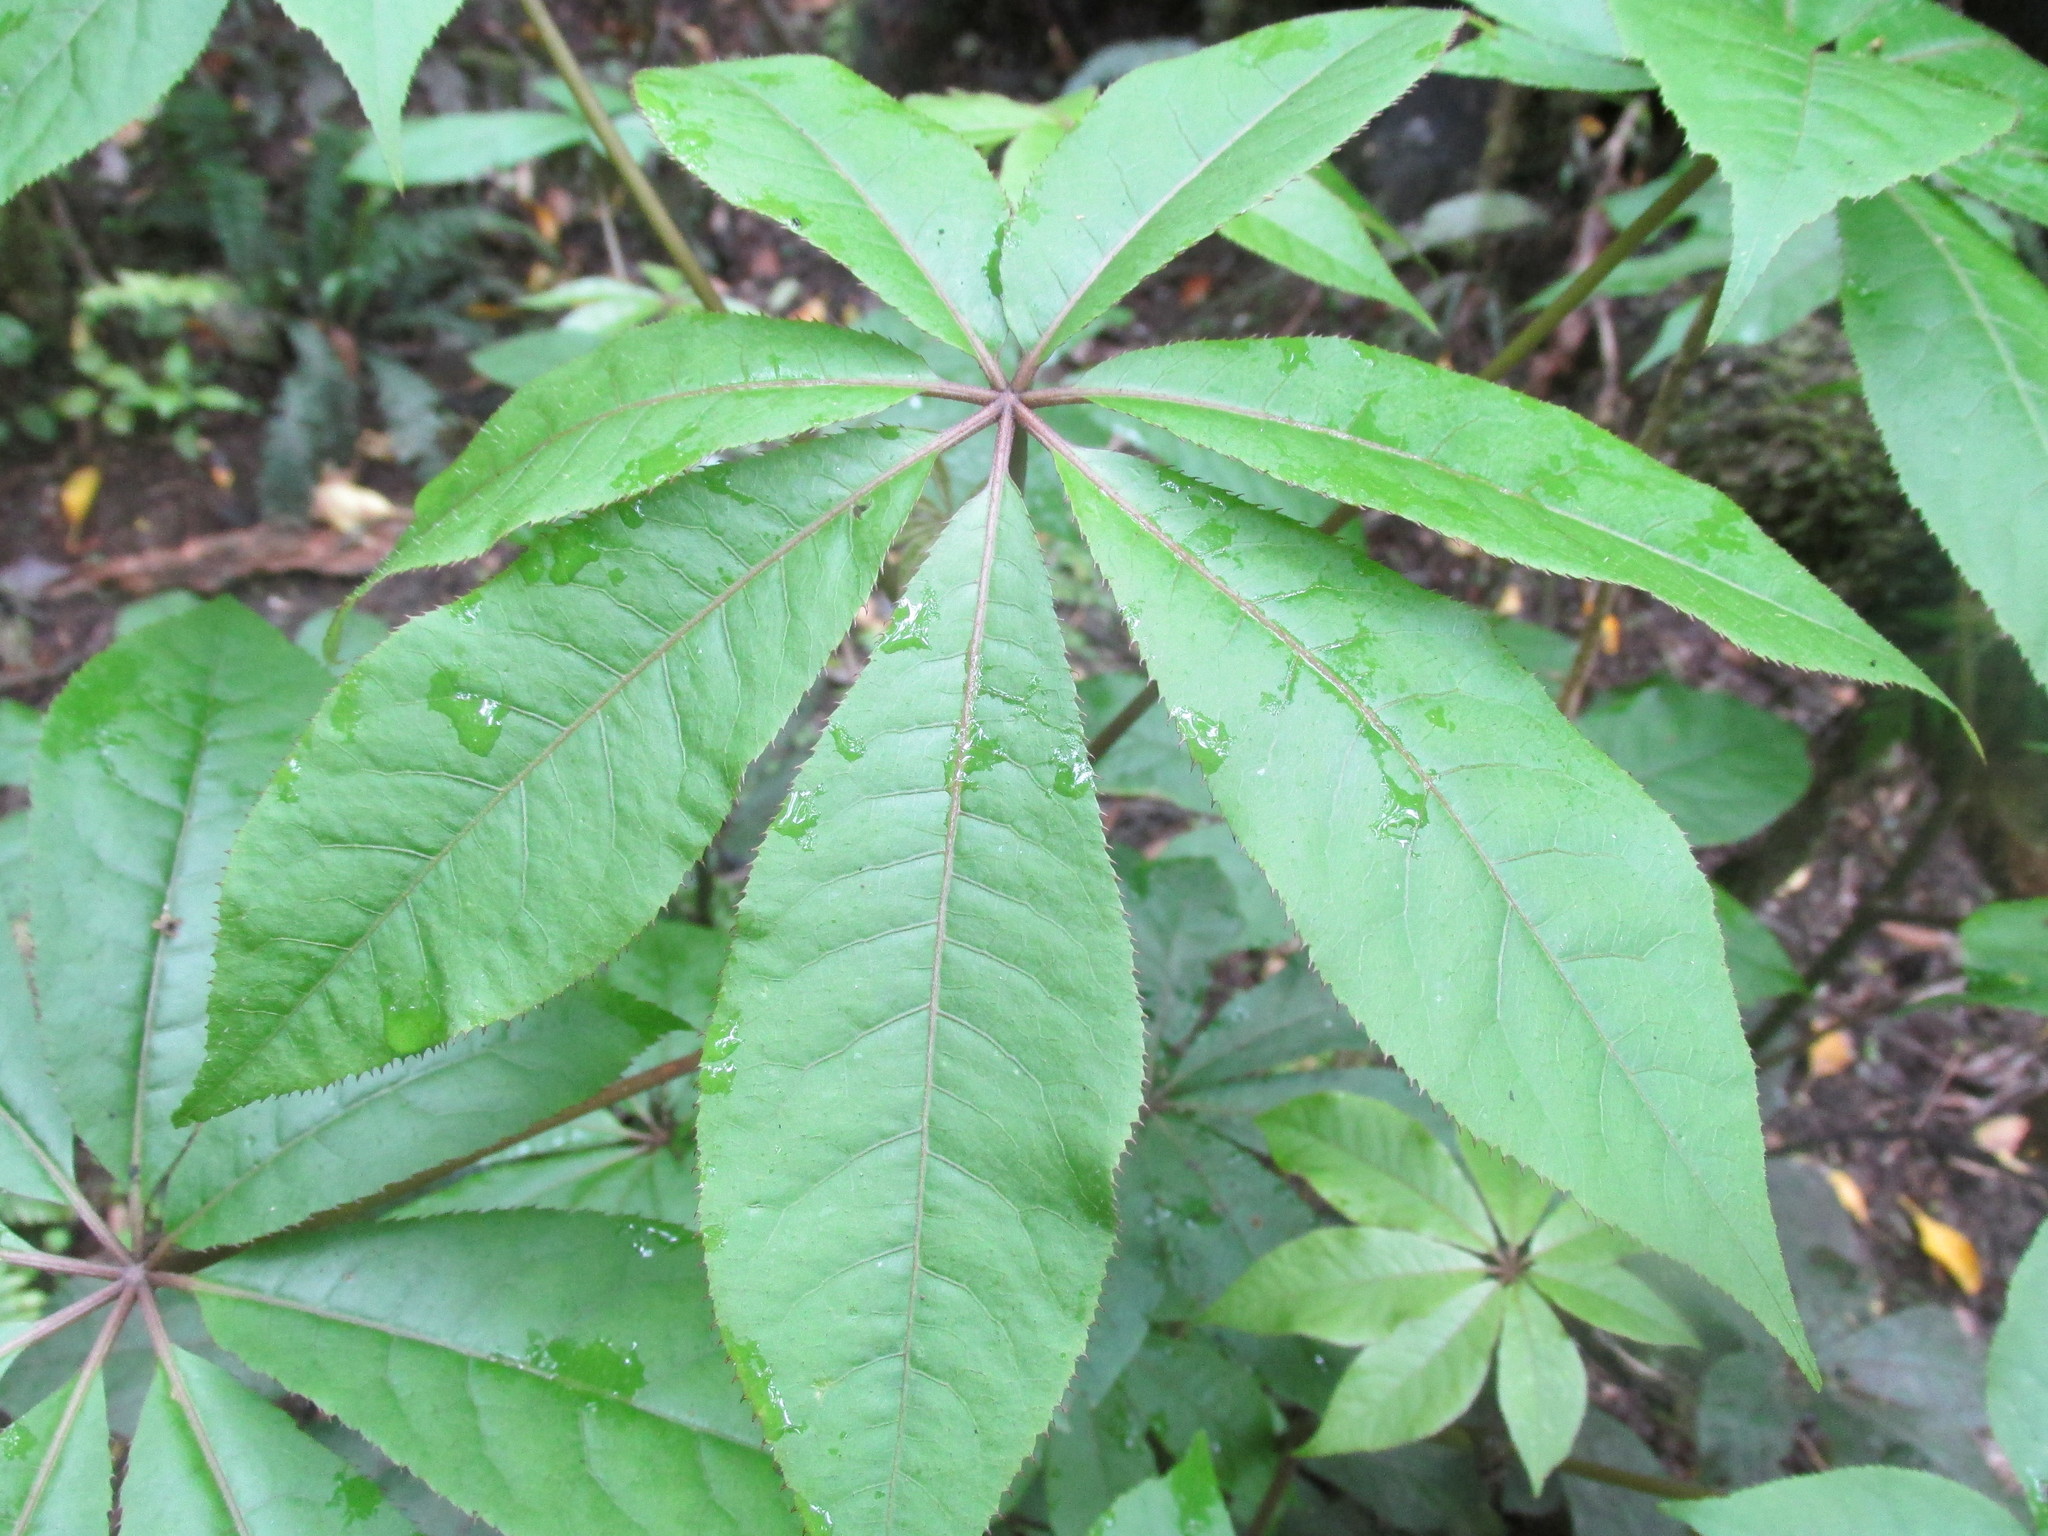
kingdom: Plantae
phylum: Tracheophyta
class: Magnoliopsida
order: Apiales
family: Araliaceae
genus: Schefflera
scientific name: Schefflera digitata
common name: Pate
